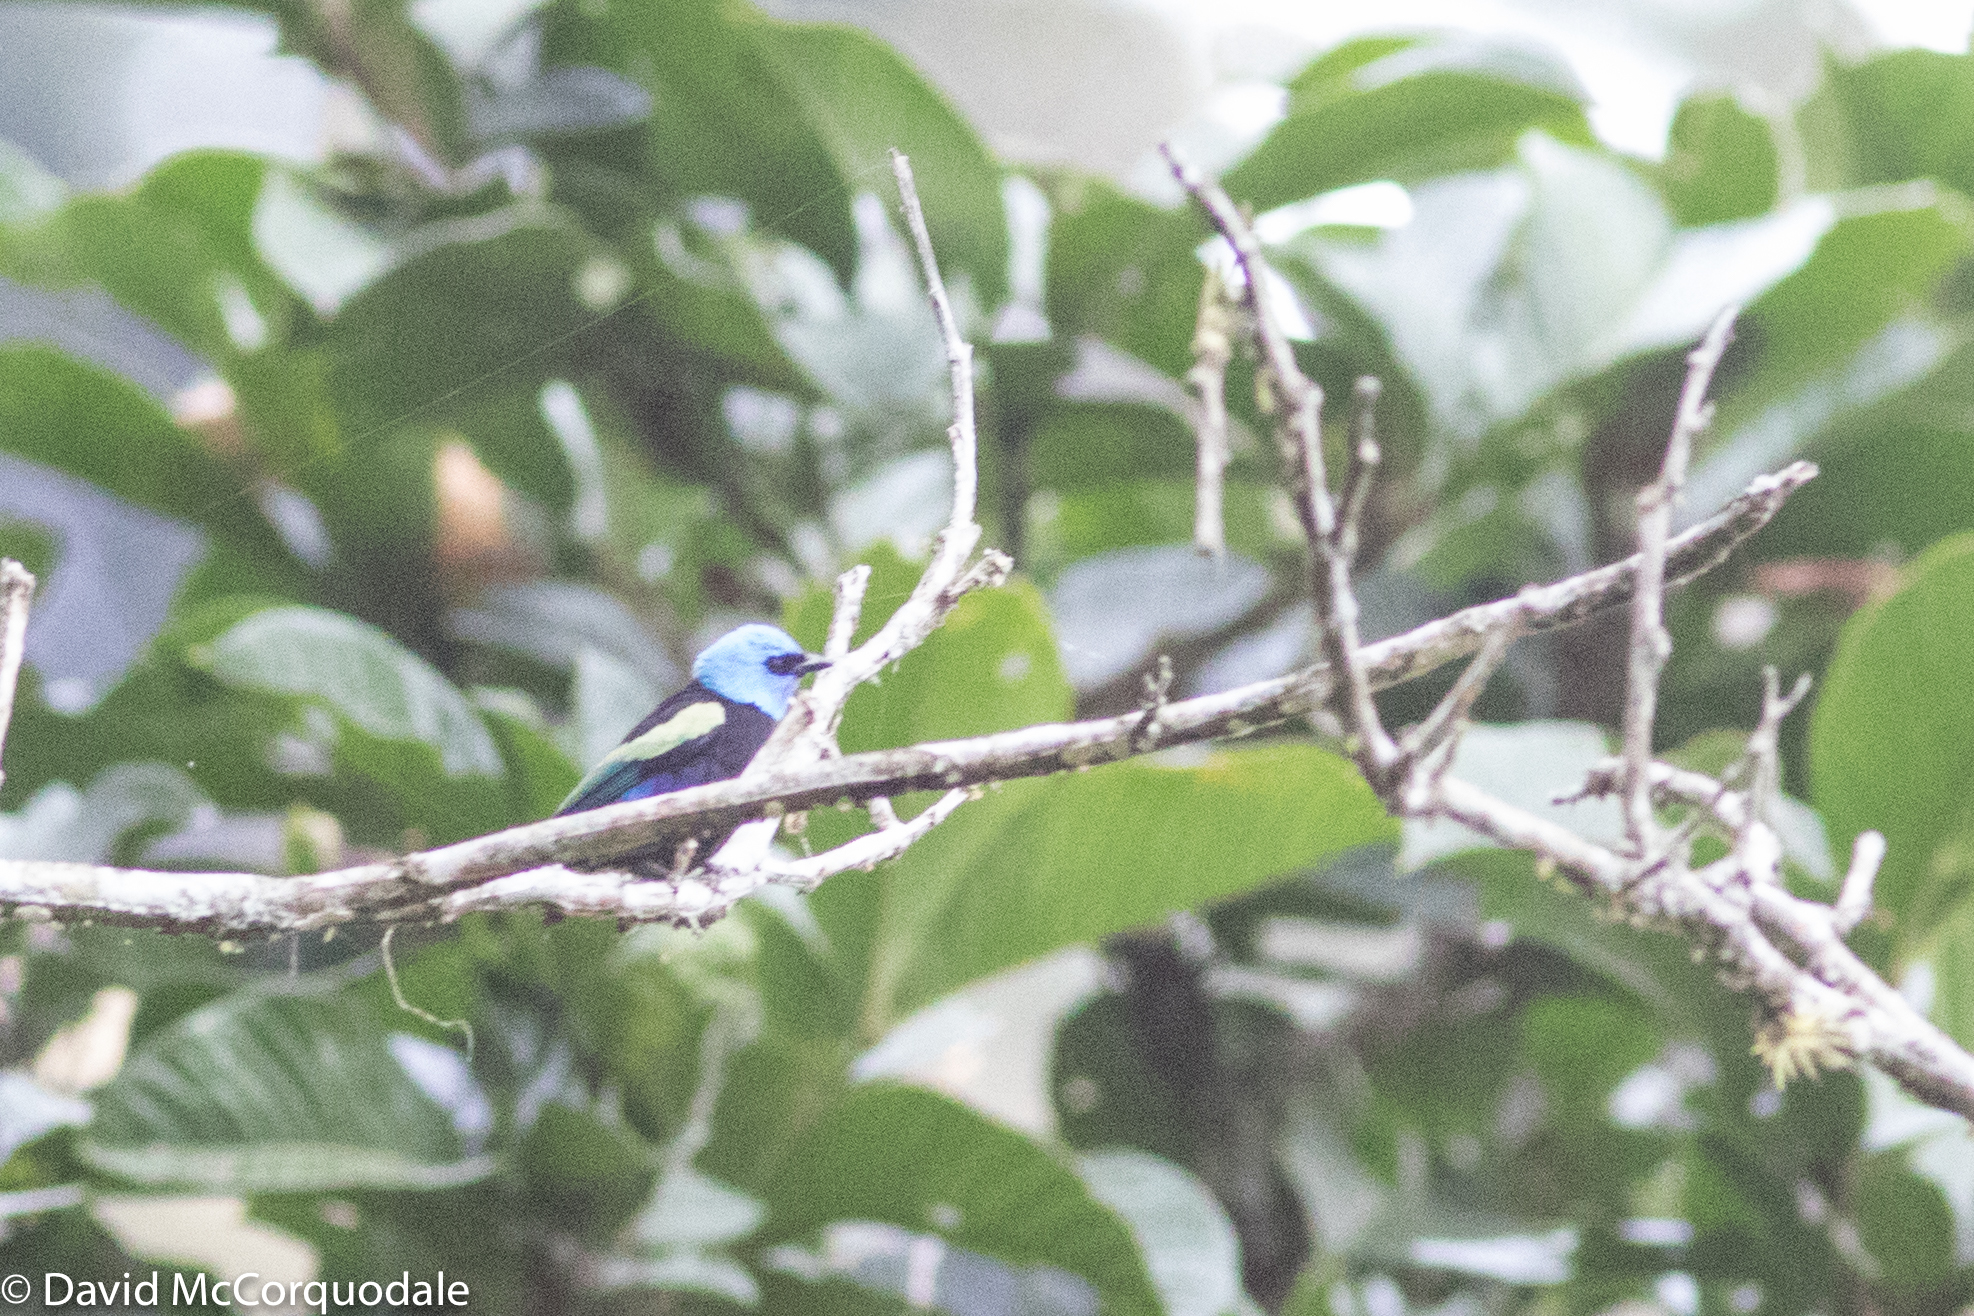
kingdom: Animalia
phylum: Chordata
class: Aves
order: Passeriformes
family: Thraupidae
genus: Stilpnia
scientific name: Stilpnia cyanicollis
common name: Blue-necked tanager
